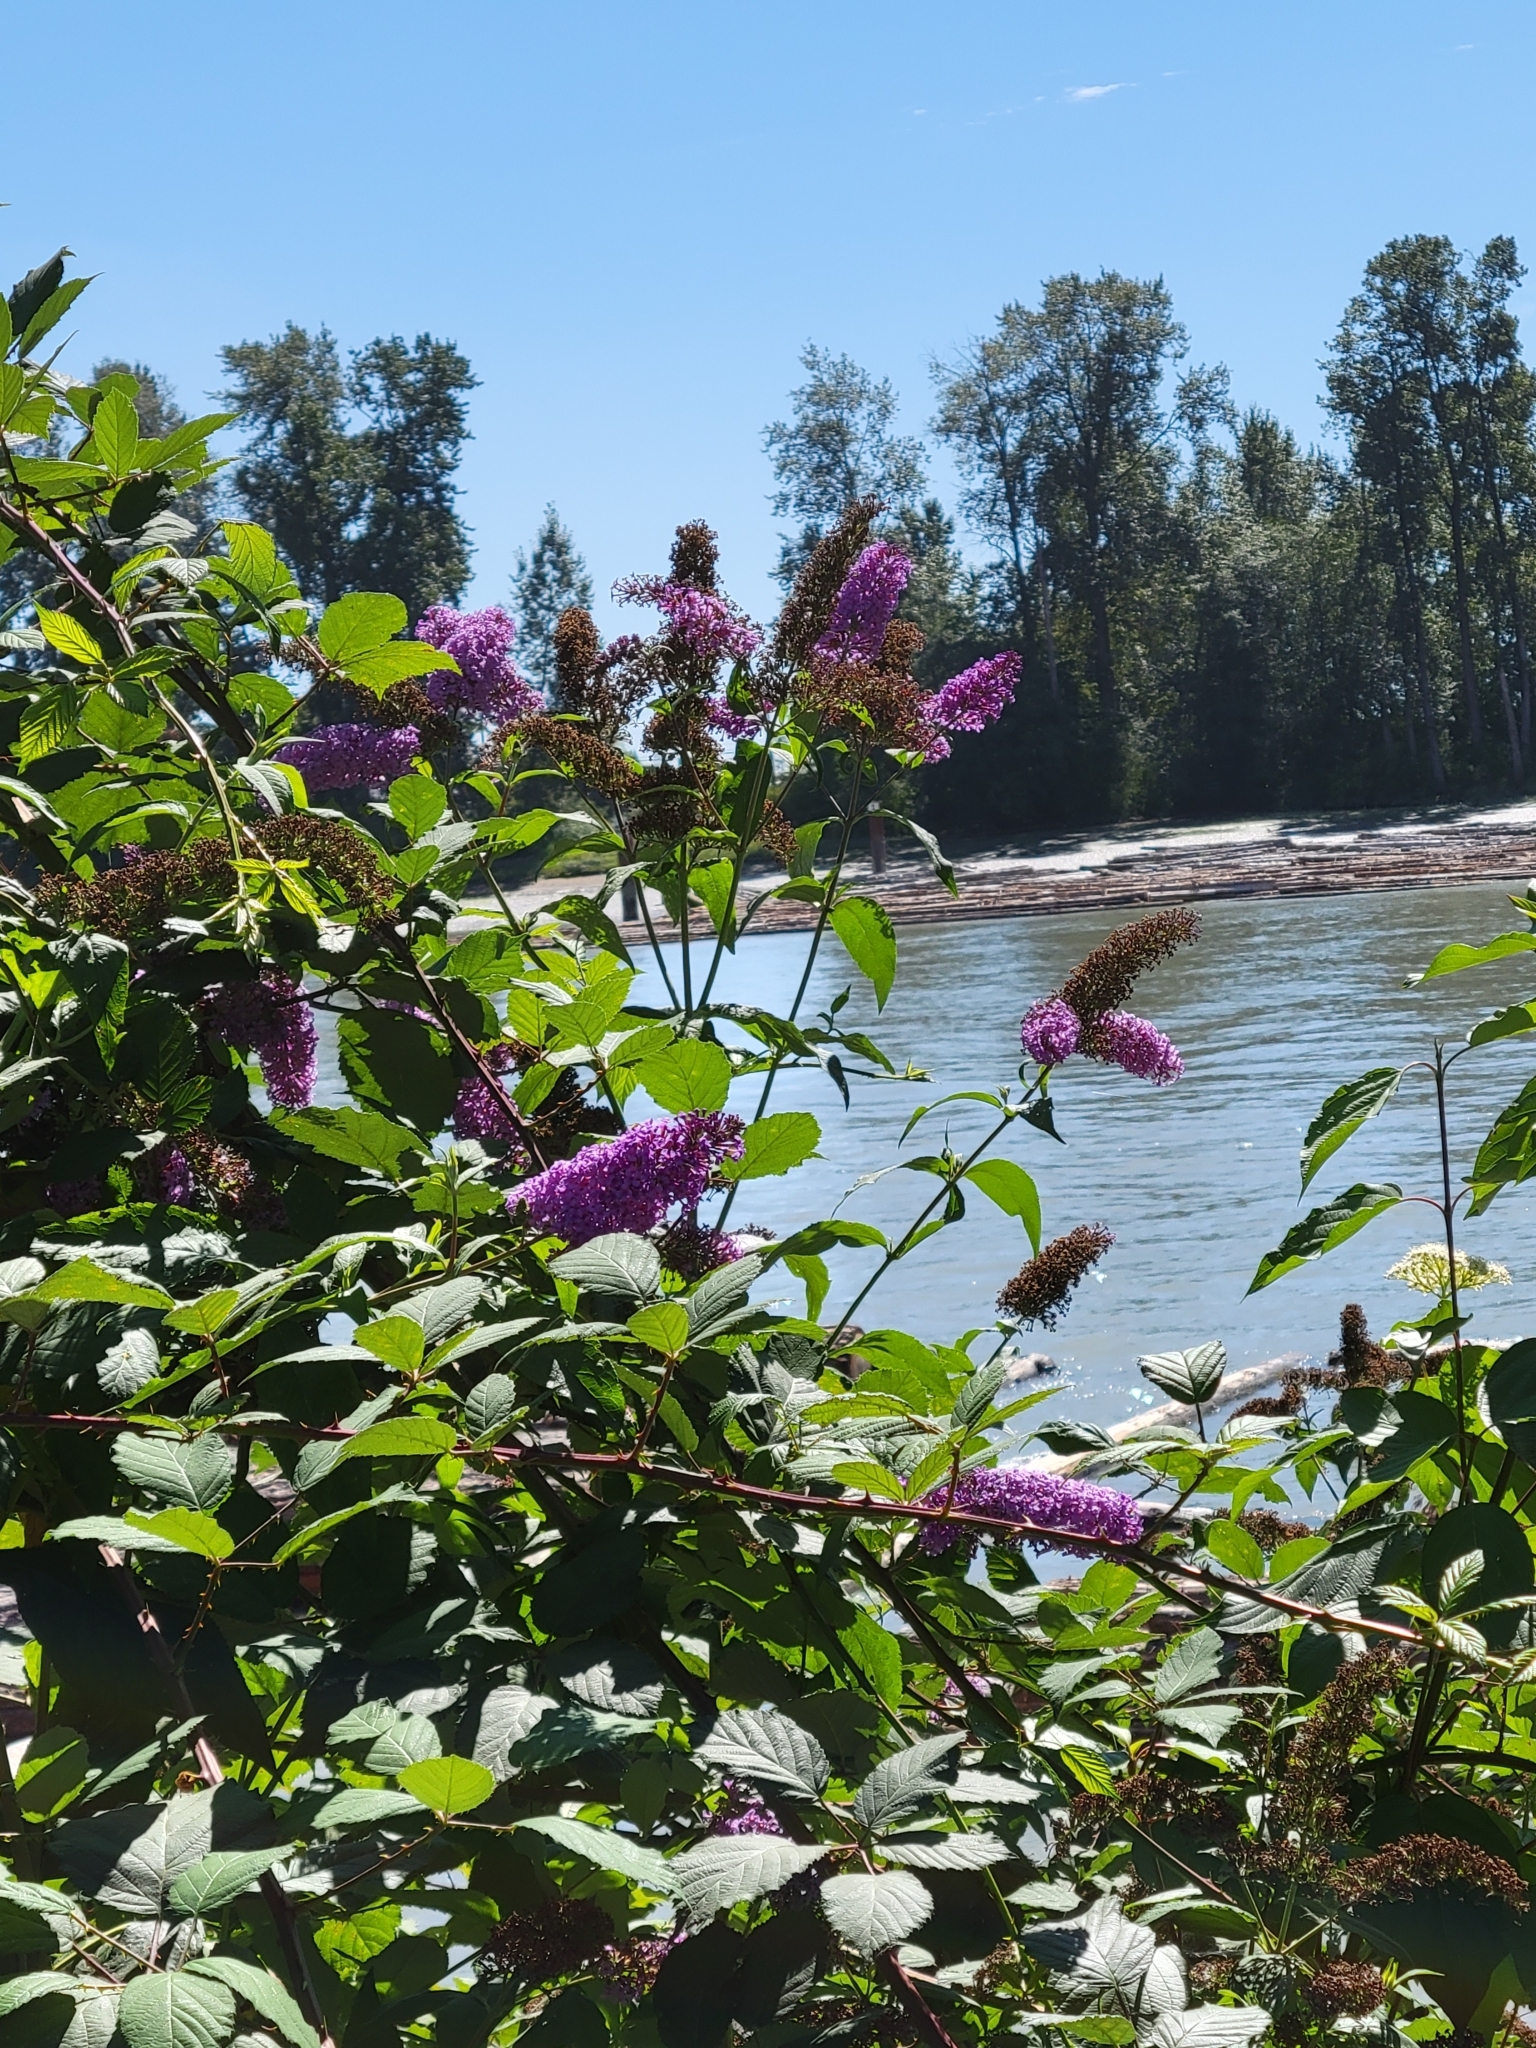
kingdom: Plantae
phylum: Tracheophyta
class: Magnoliopsida
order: Lamiales
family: Scrophulariaceae
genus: Buddleja
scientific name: Buddleja davidii
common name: Butterfly-bush
